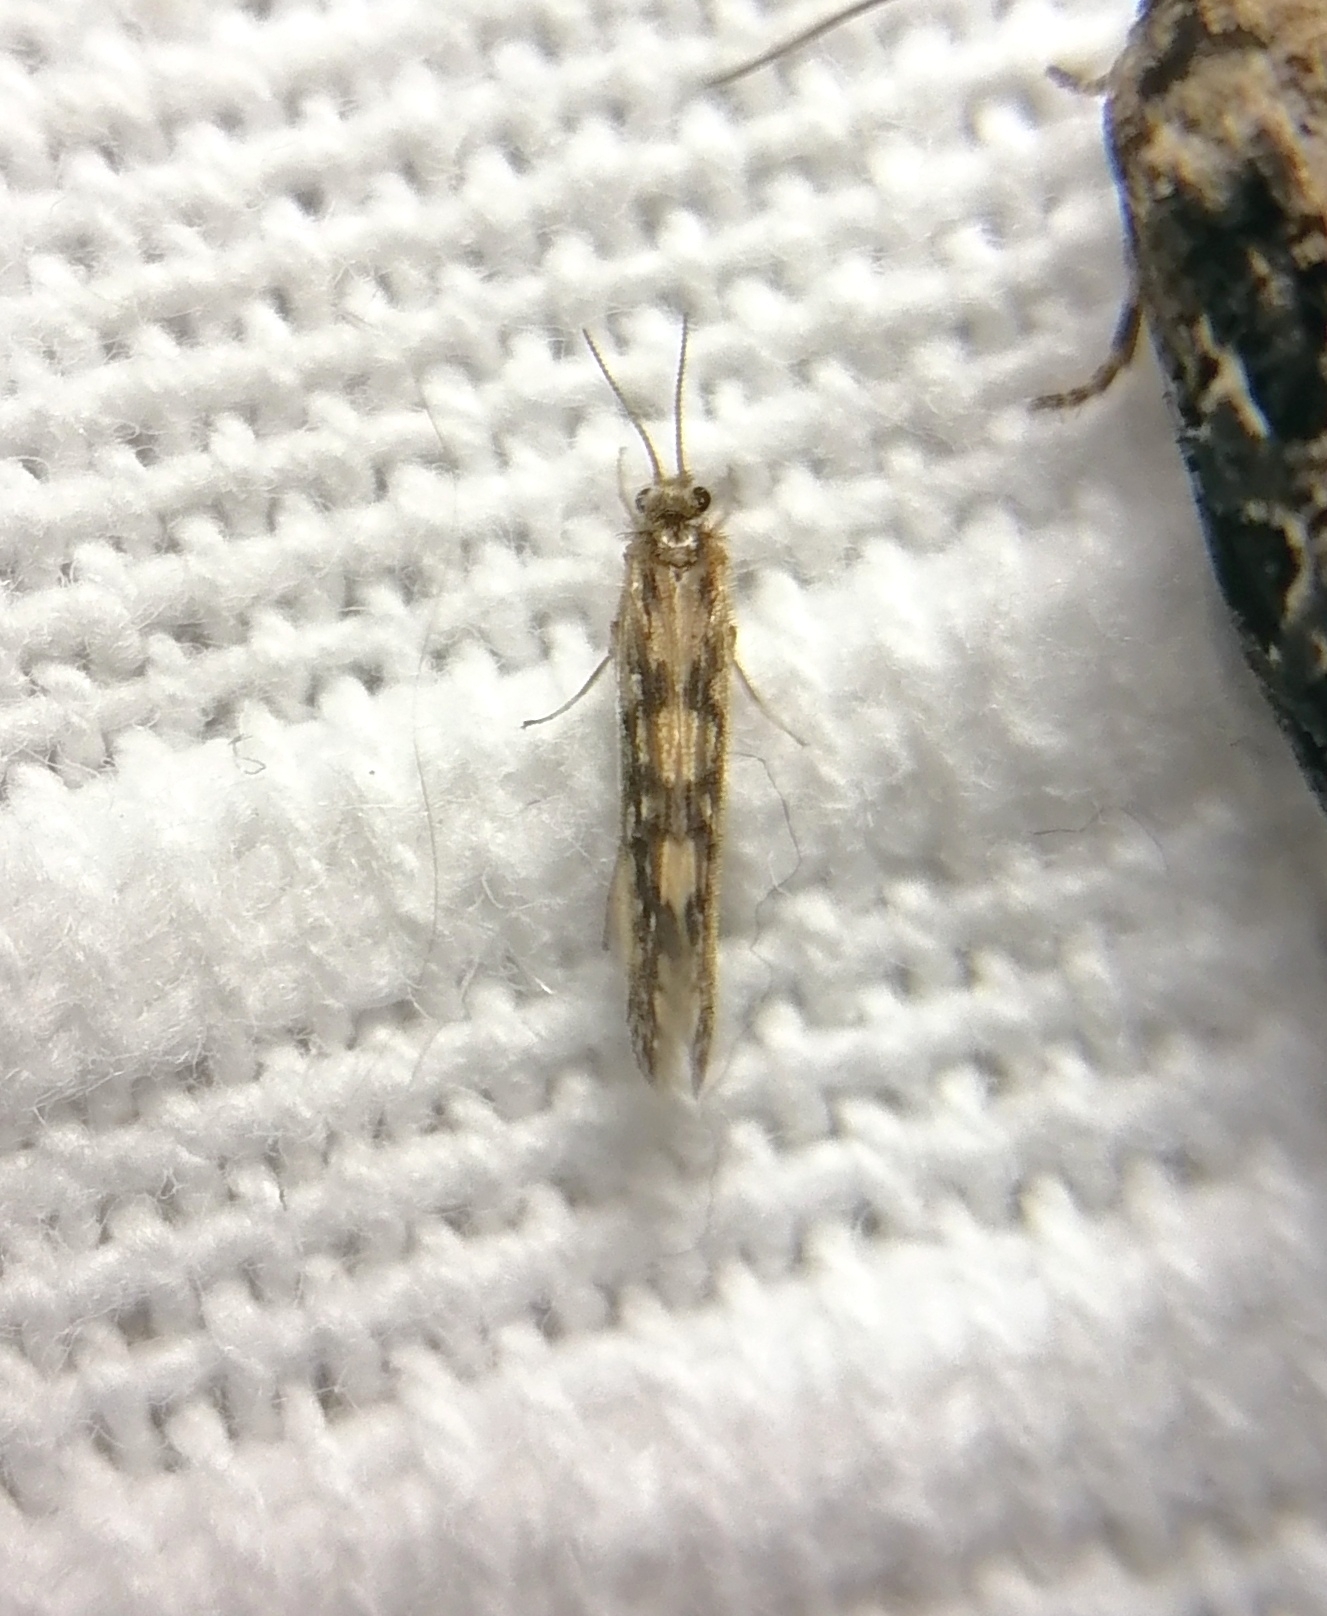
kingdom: Animalia
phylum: Arthropoda
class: Insecta
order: Trichoptera
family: Hydroptilidae
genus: Agraylea
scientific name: Agraylea multipunctata
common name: Salt and pepper microcaddisfly
